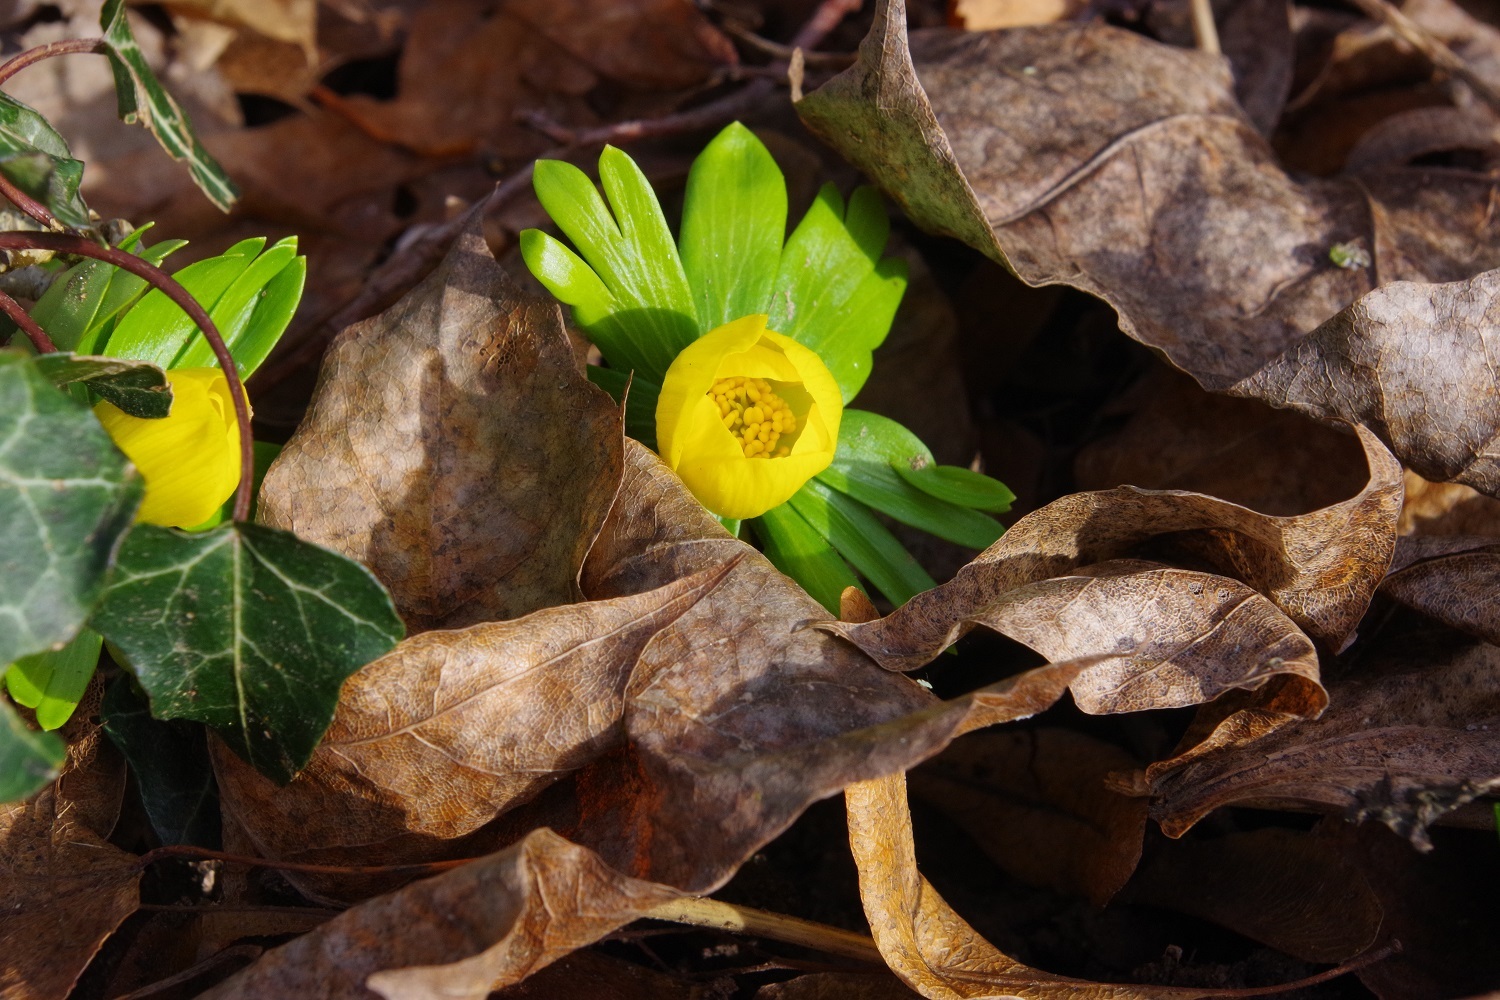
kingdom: Plantae
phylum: Tracheophyta
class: Magnoliopsida
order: Ranunculales
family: Ranunculaceae
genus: Eranthis
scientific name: Eranthis hyemalis
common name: Winter aconite
